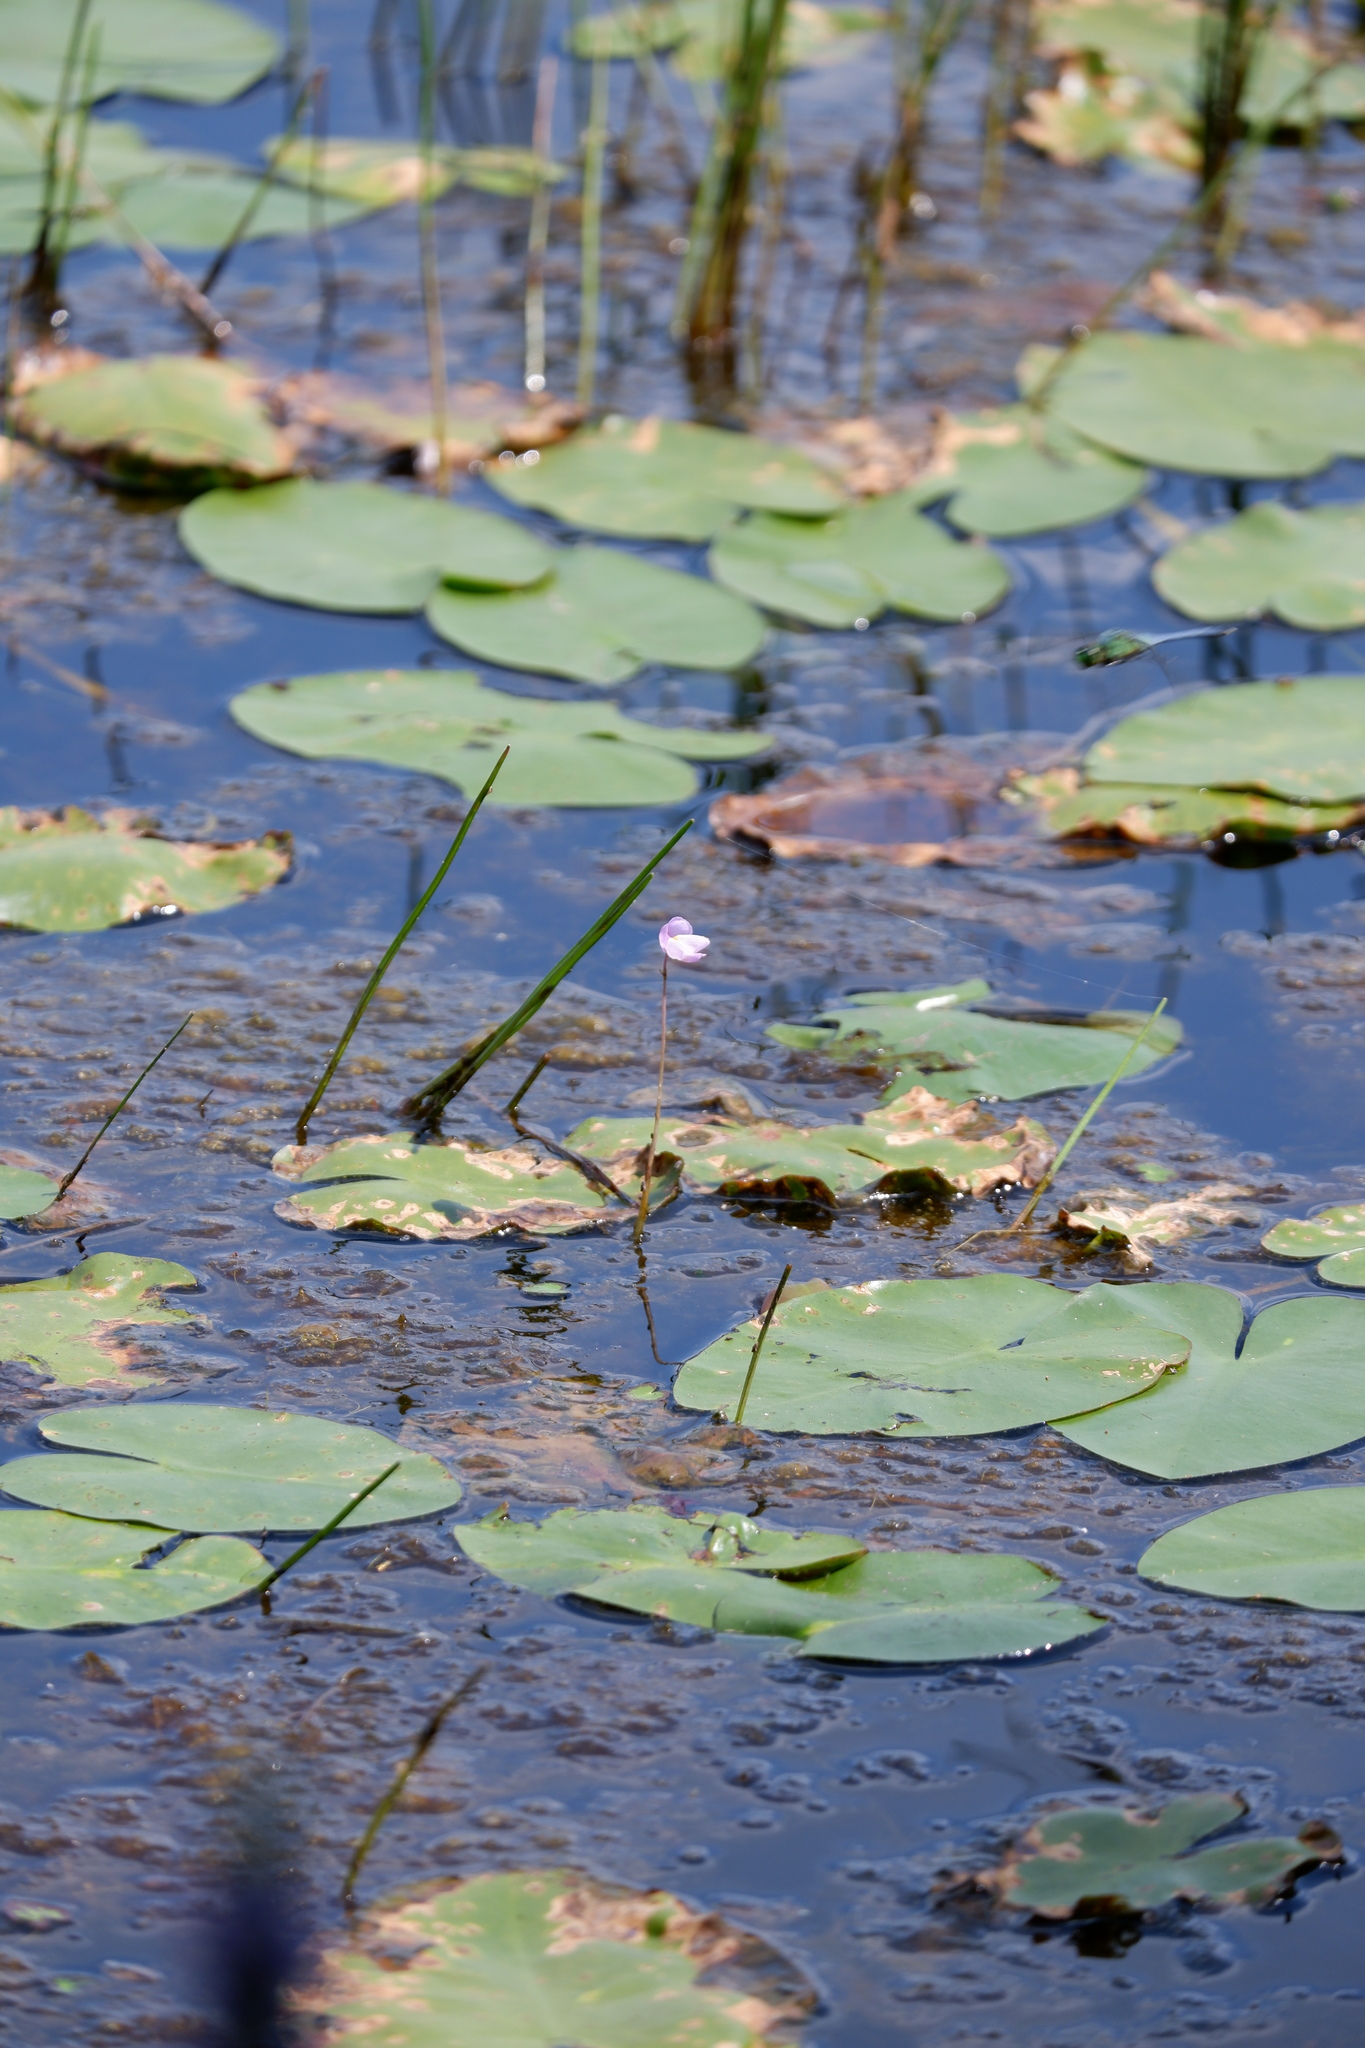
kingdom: Plantae
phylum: Tracheophyta
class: Magnoliopsida
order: Lamiales
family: Lentibulariaceae
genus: Utricularia
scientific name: Utricularia purpurea
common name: Eastern purple bladderwort
